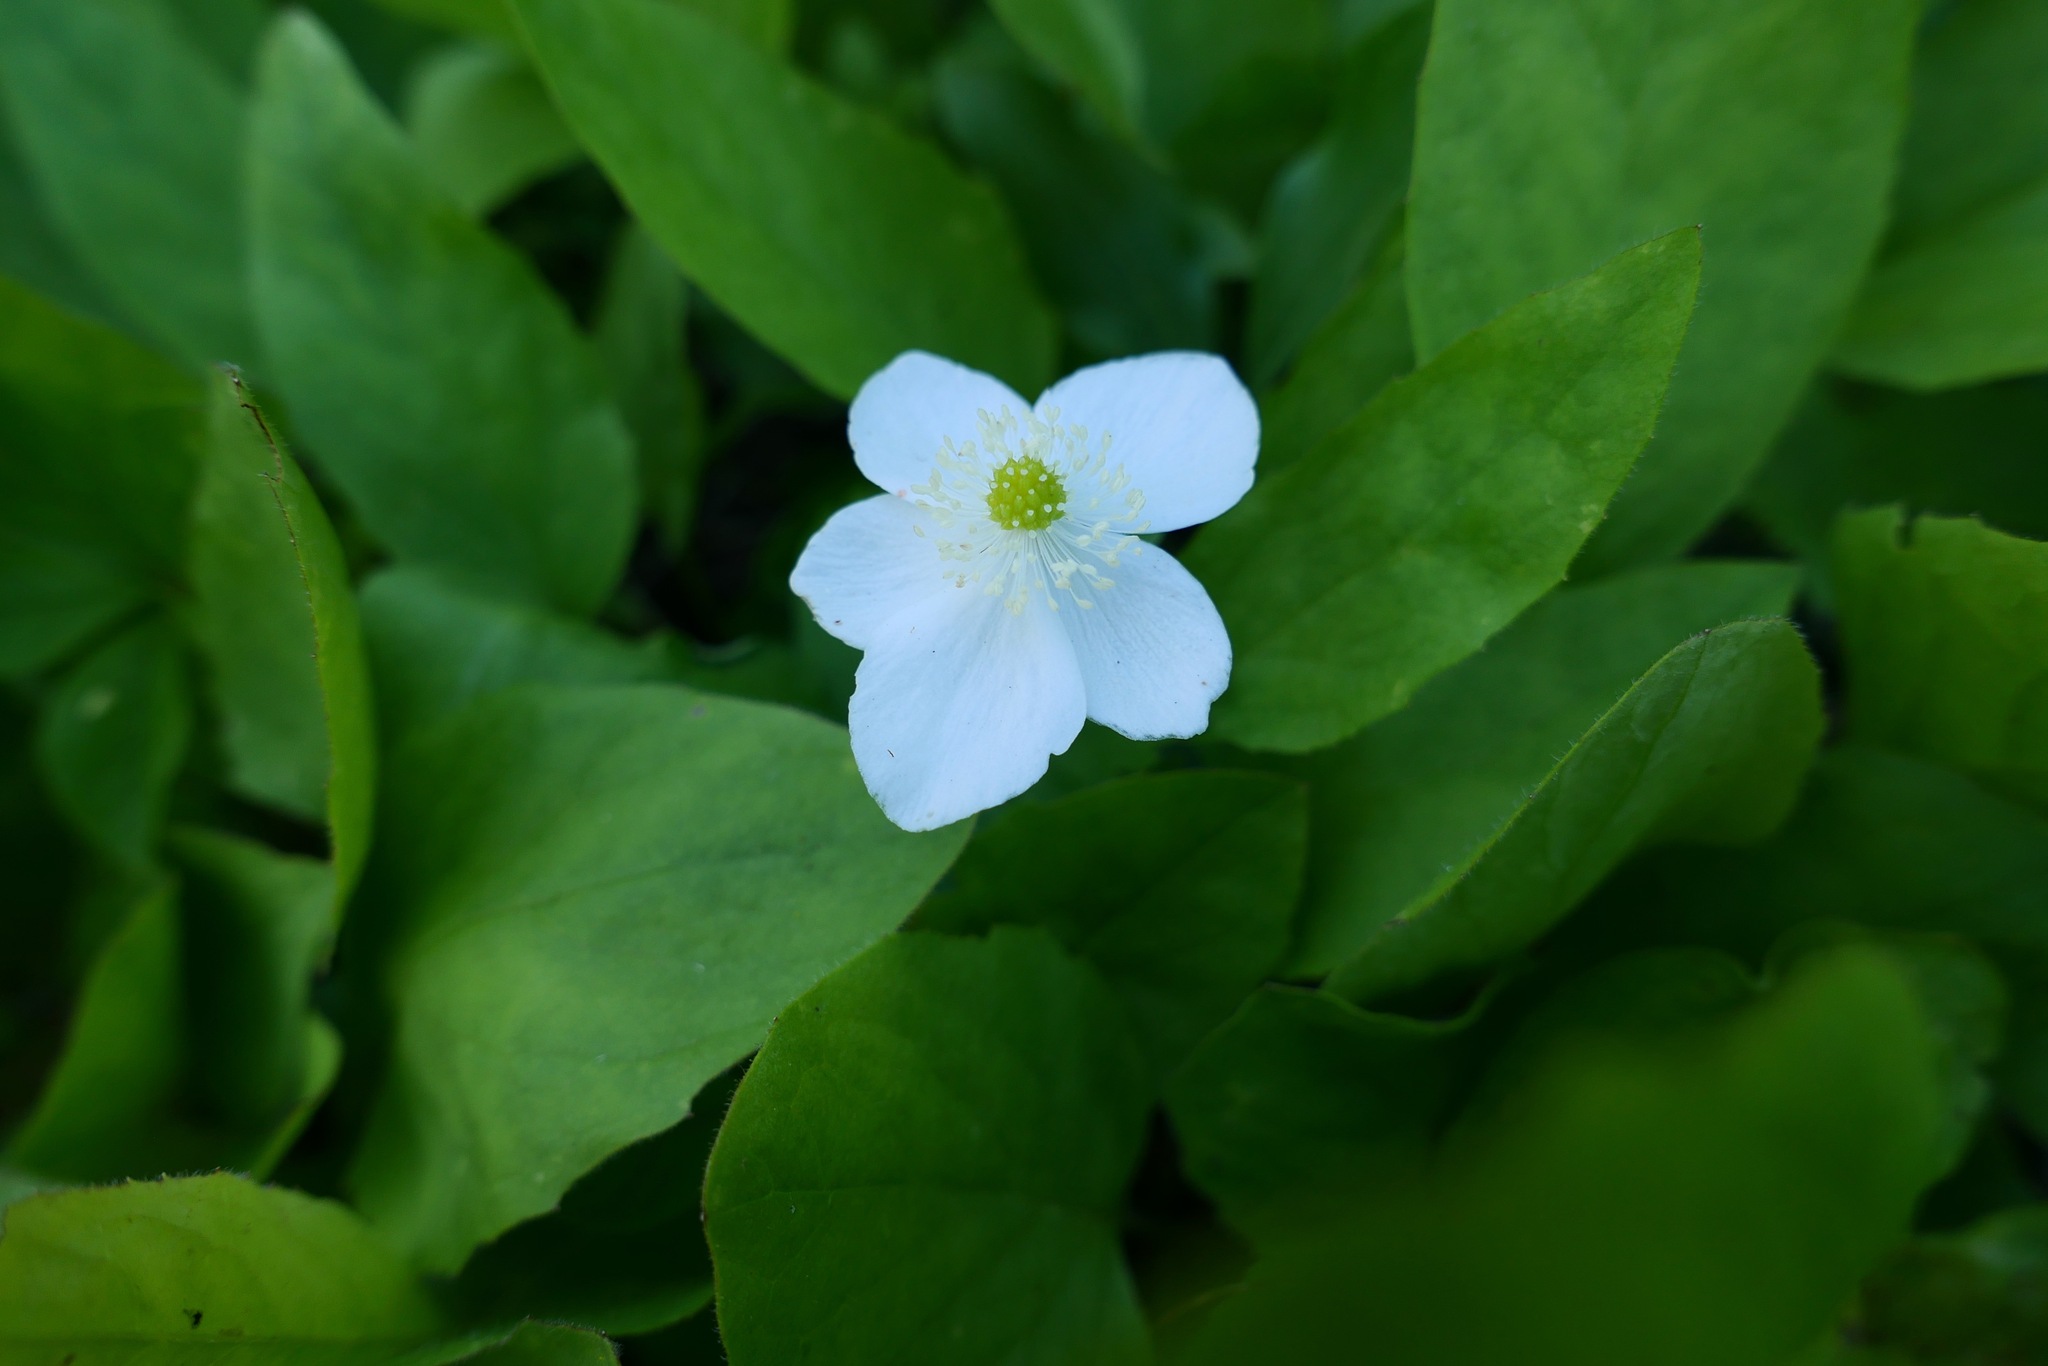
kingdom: Plantae
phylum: Tracheophyta
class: Magnoliopsida
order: Ranunculales
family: Ranunculaceae
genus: Anemonastrum
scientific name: Anemonastrum deltoideum
